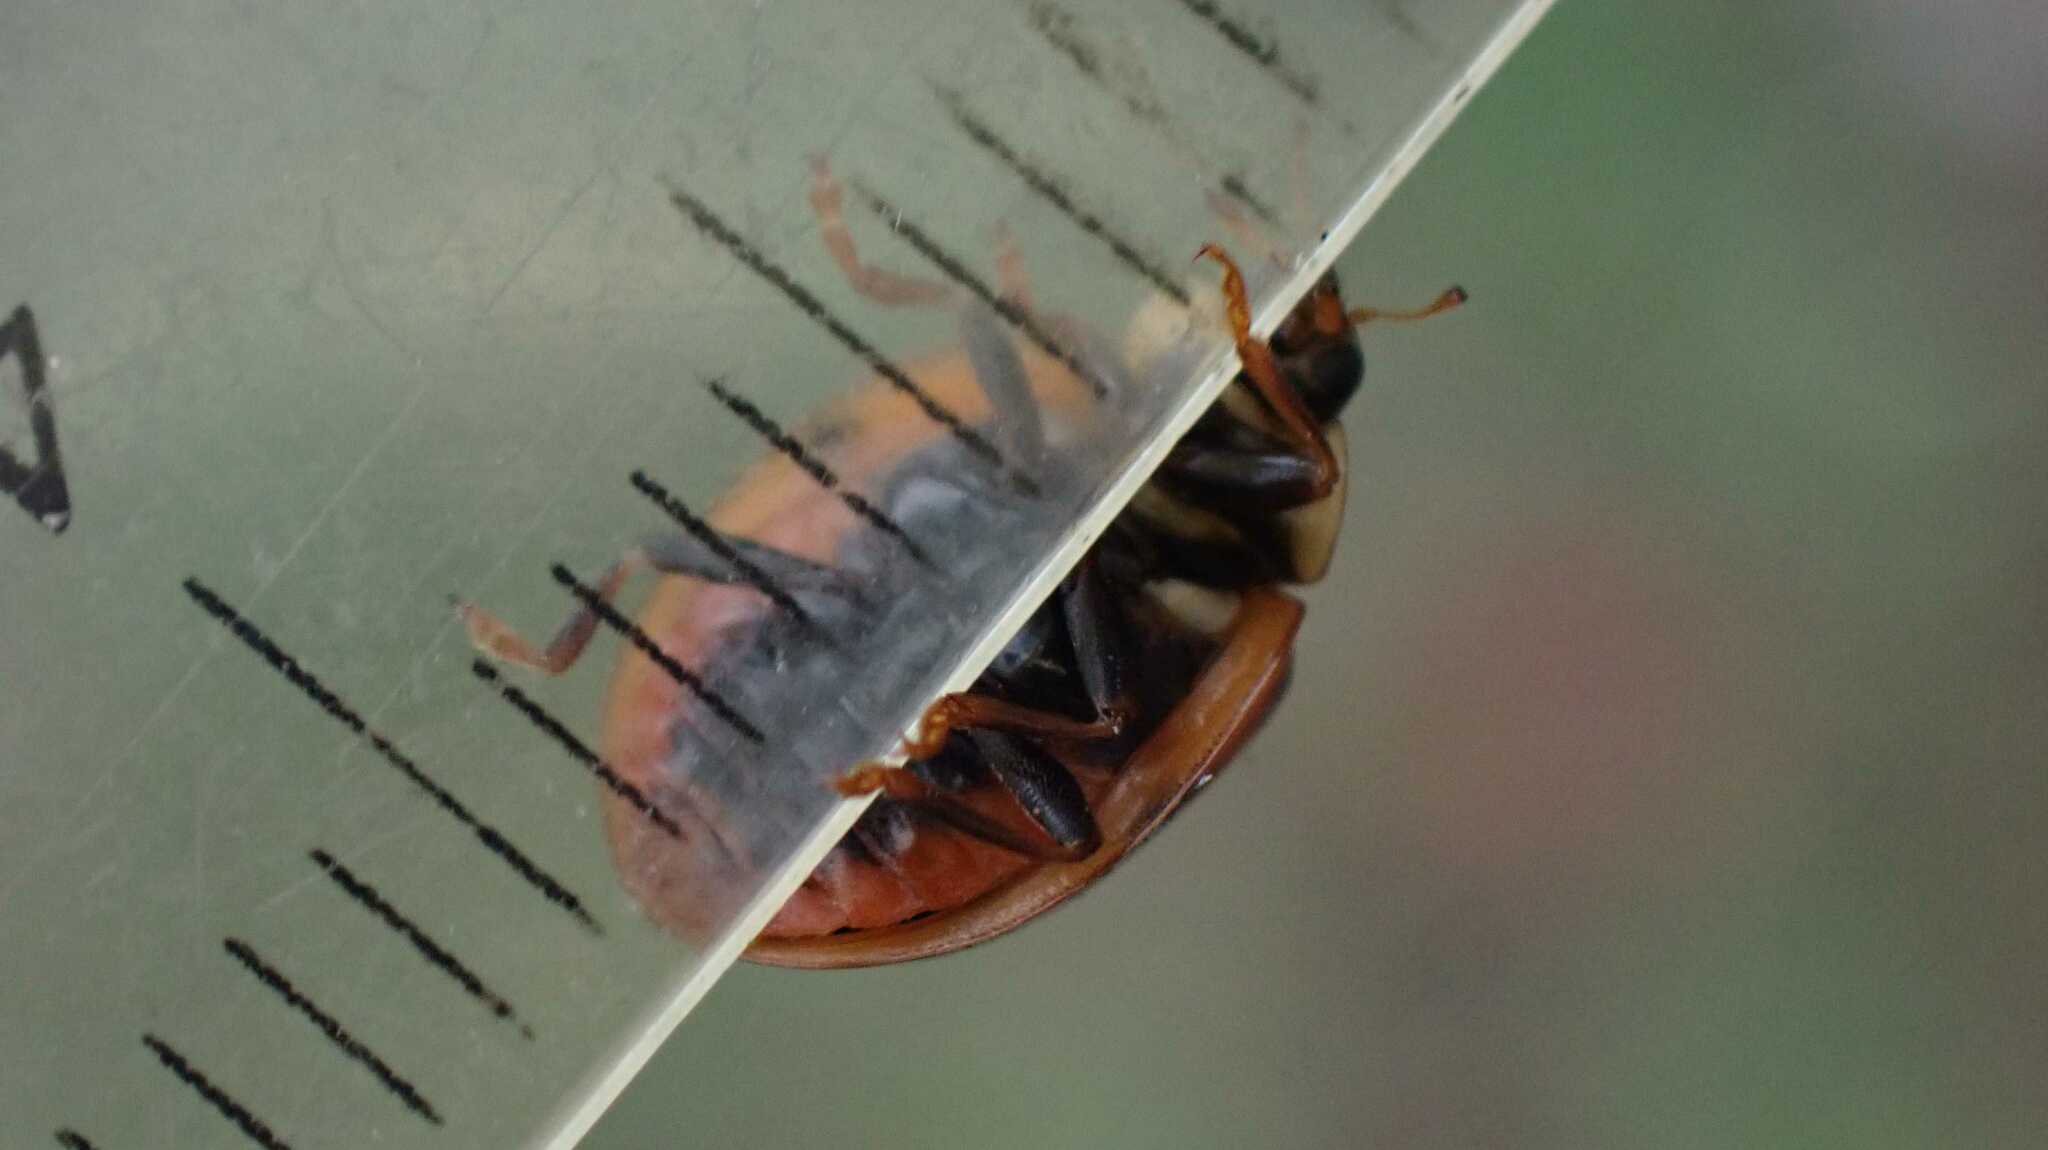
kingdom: Animalia
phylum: Arthropoda
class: Insecta
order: Coleoptera
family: Coccinellidae
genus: Harmonia
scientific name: Harmonia axyridis
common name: Harlequin ladybird
